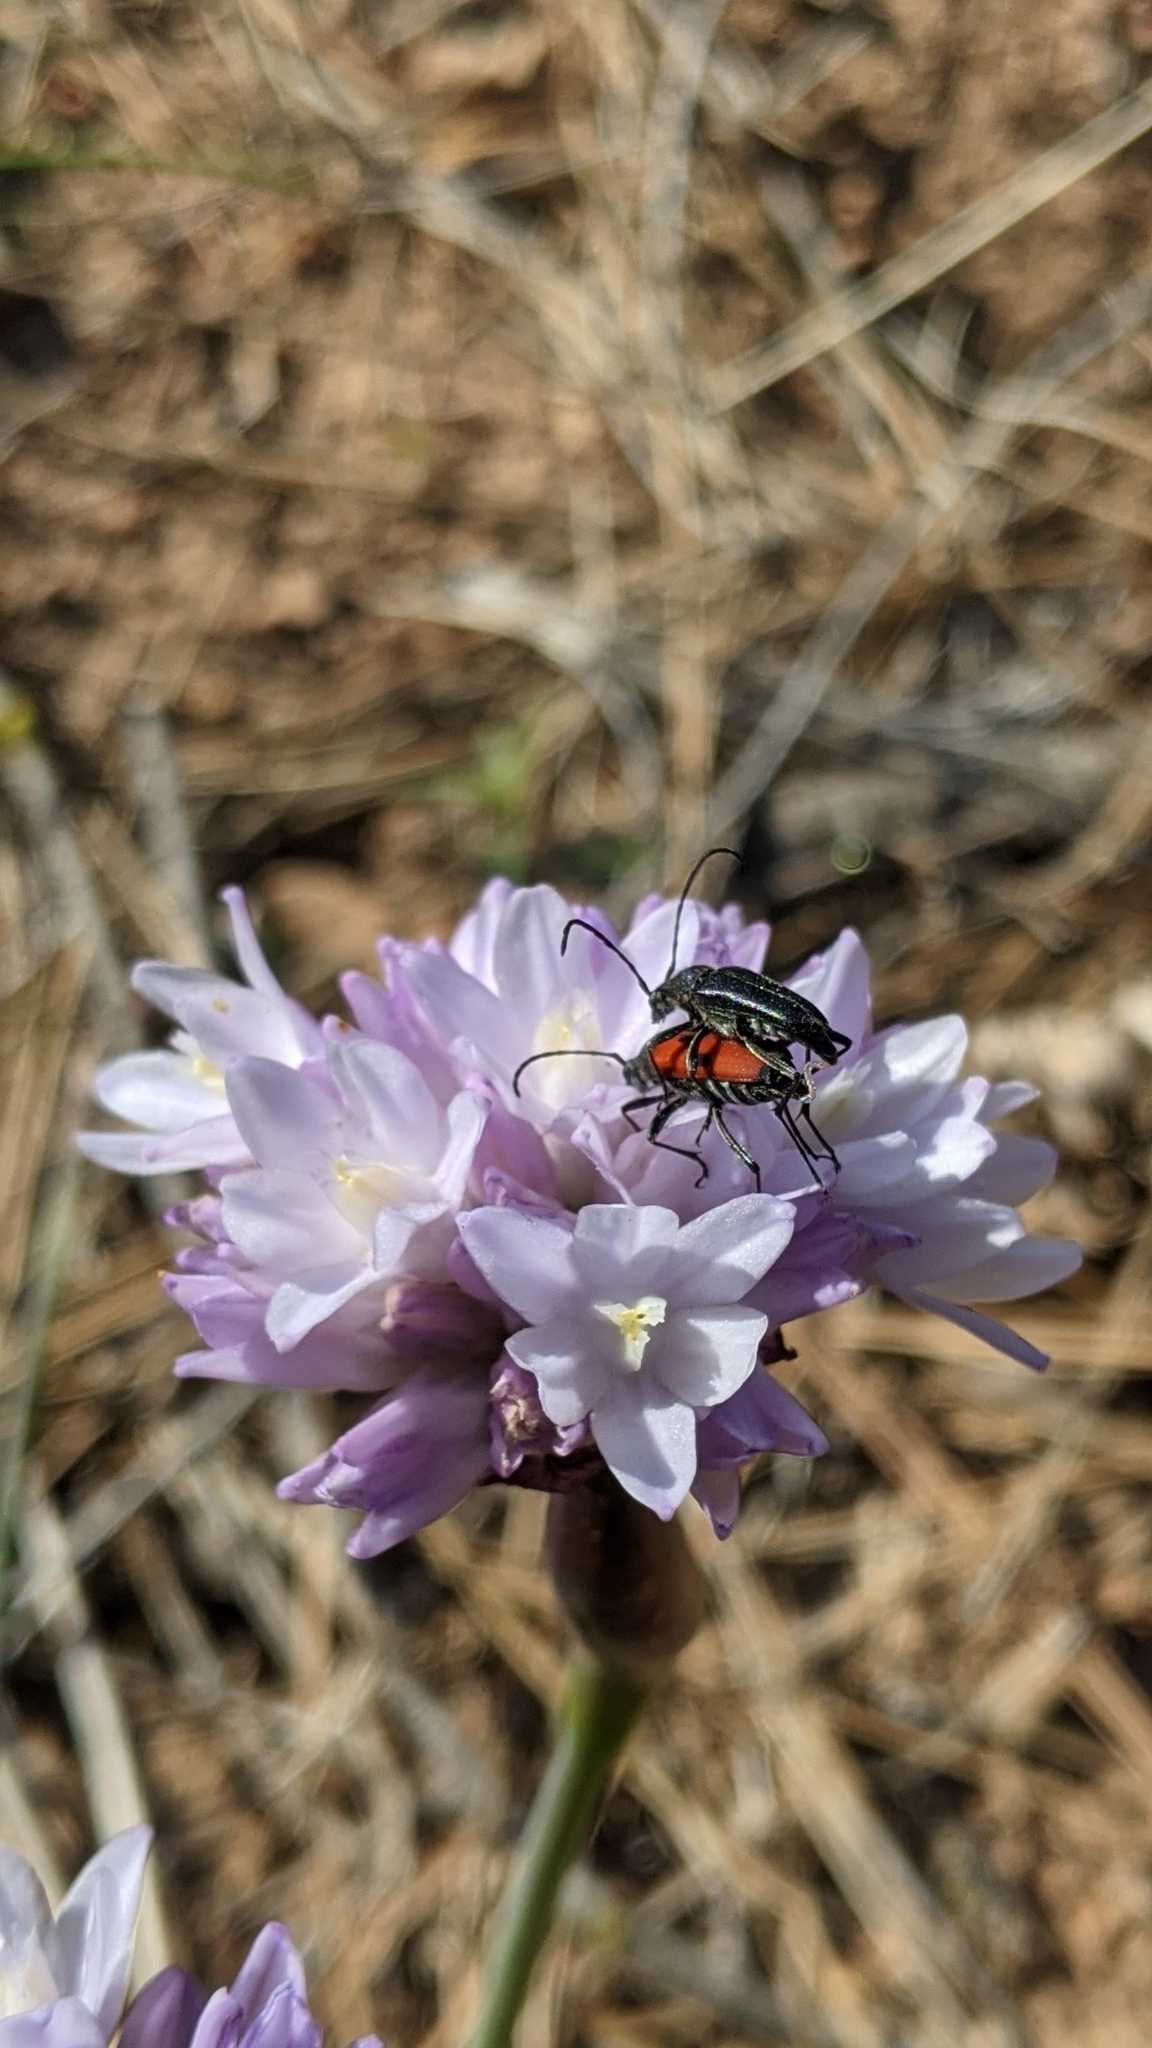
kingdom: Animalia
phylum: Arthropoda
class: Insecta
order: Coleoptera
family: Cerambycidae
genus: Anastrangalia
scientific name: Anastrangalia laetifica
